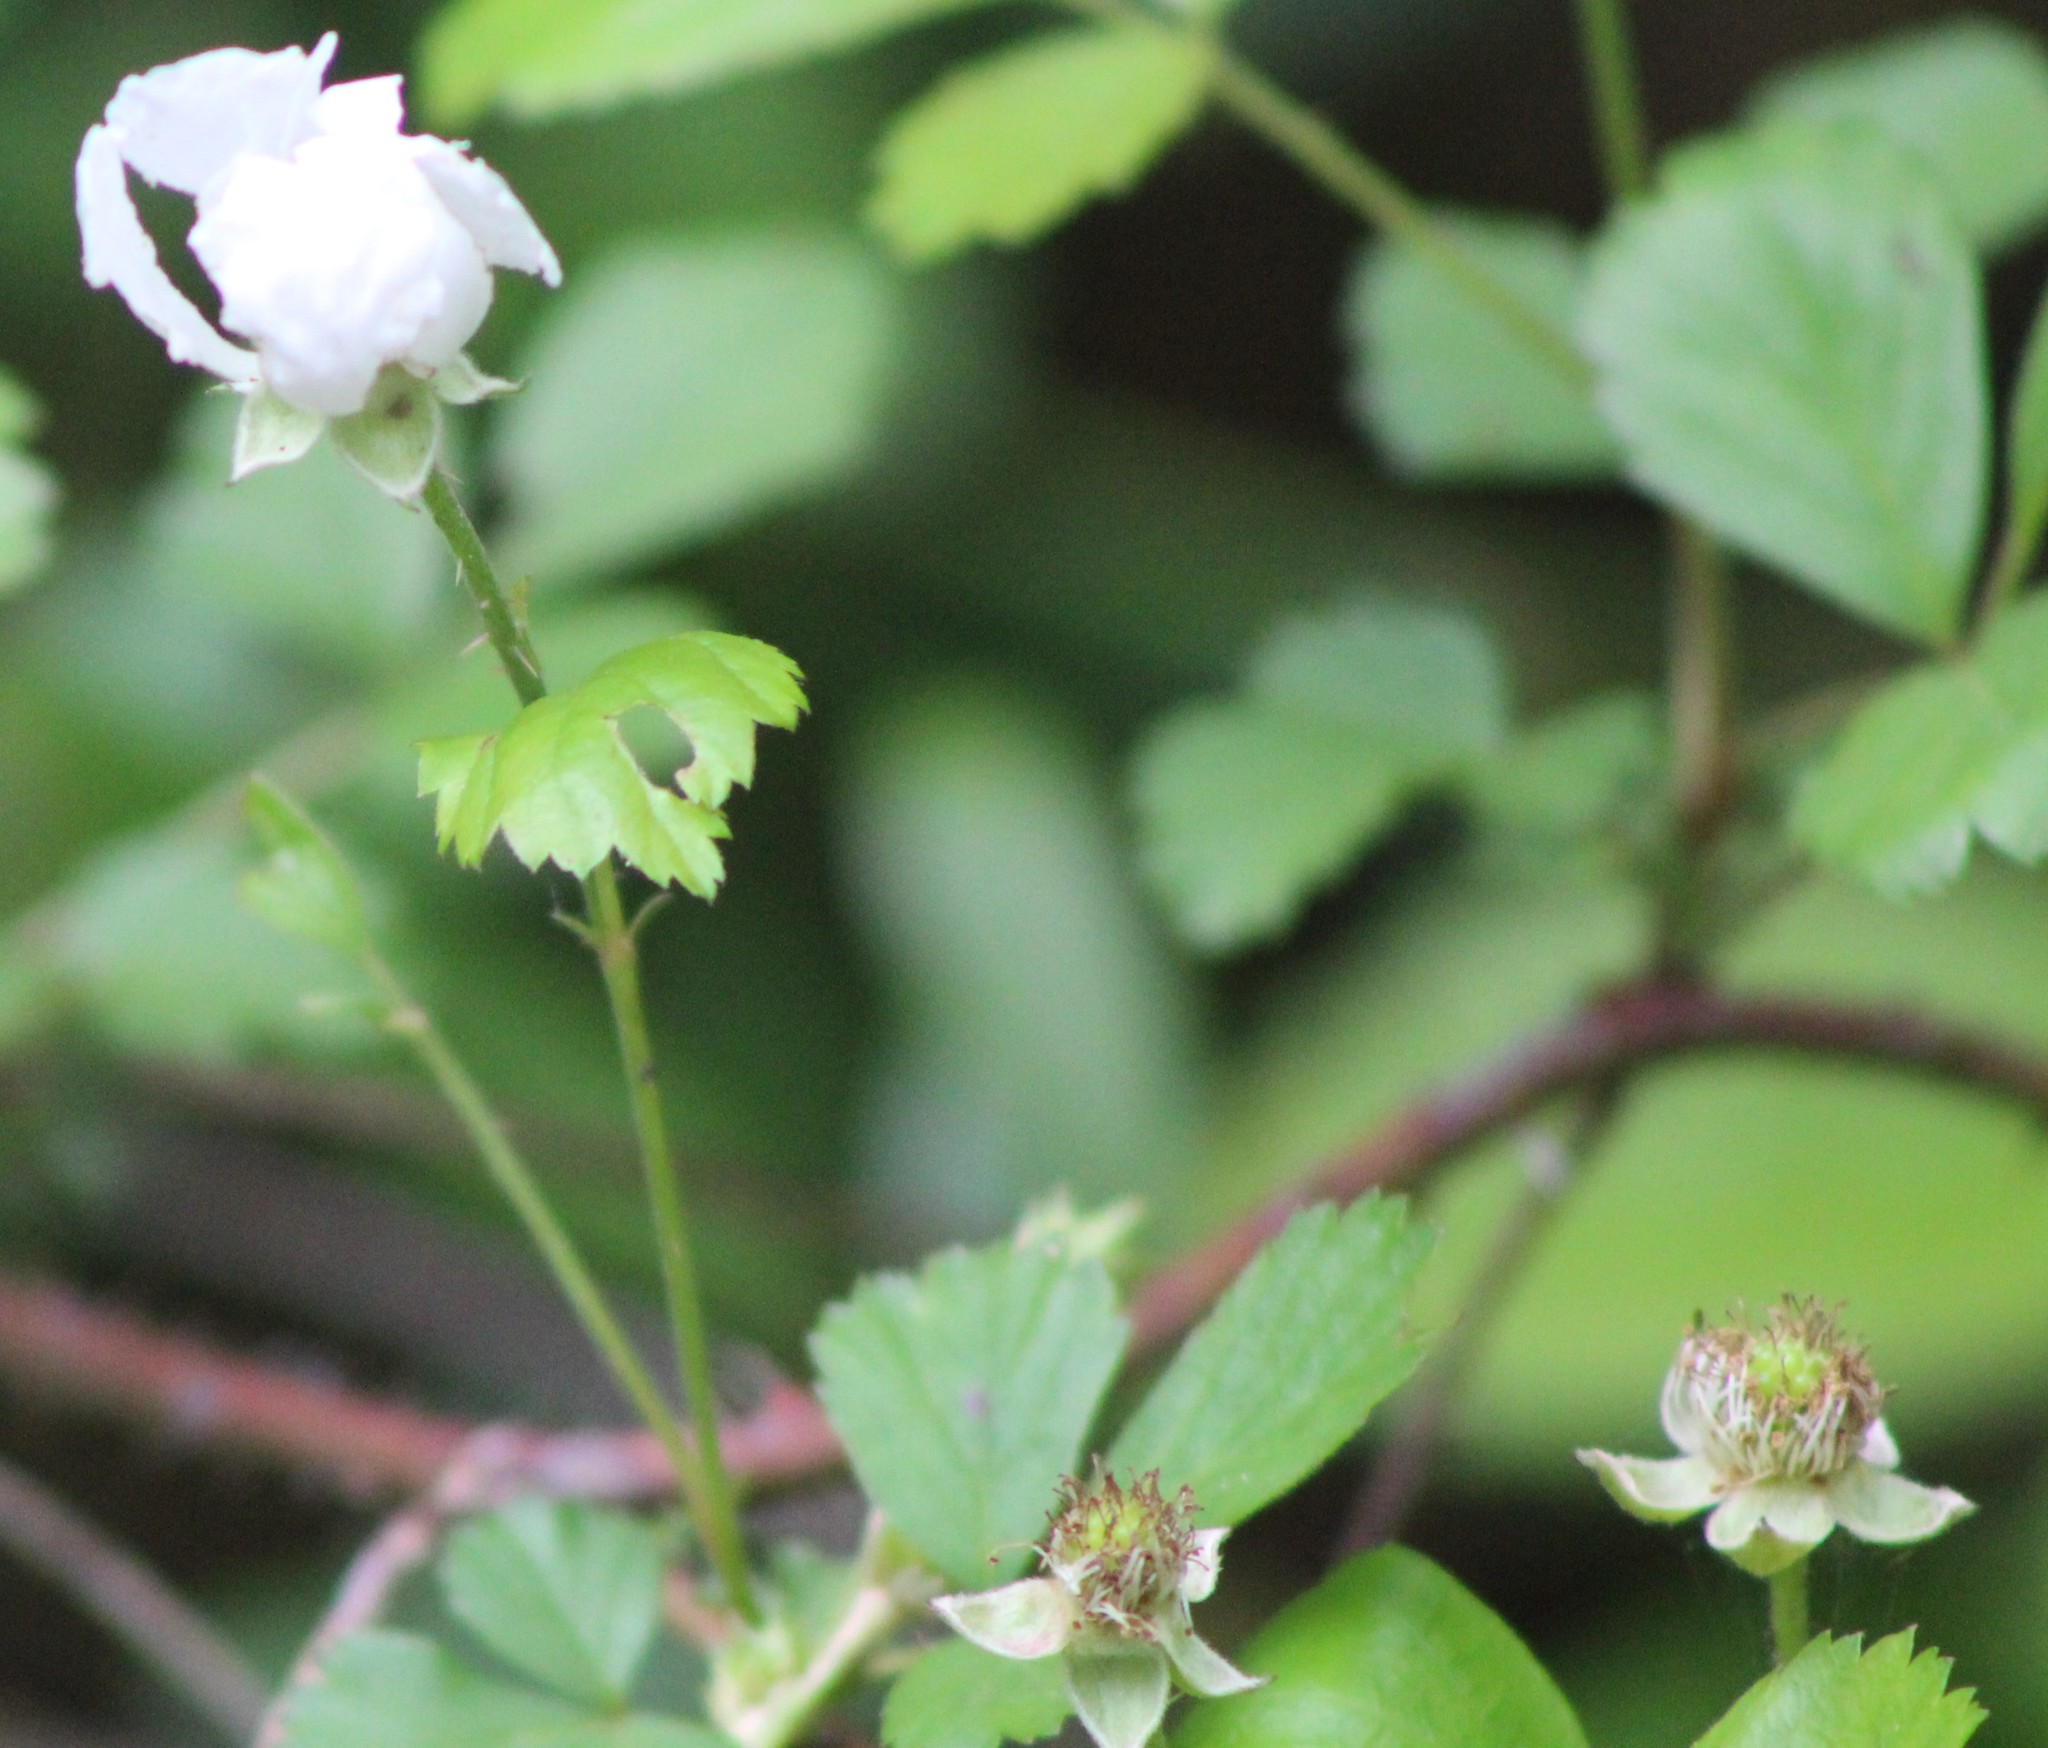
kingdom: Plantae
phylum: Tracheophyta
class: Magnoliopsida
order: Rosales
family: Rosaceae
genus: Rubus
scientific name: Rubus trivialis
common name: Southern dewberry
